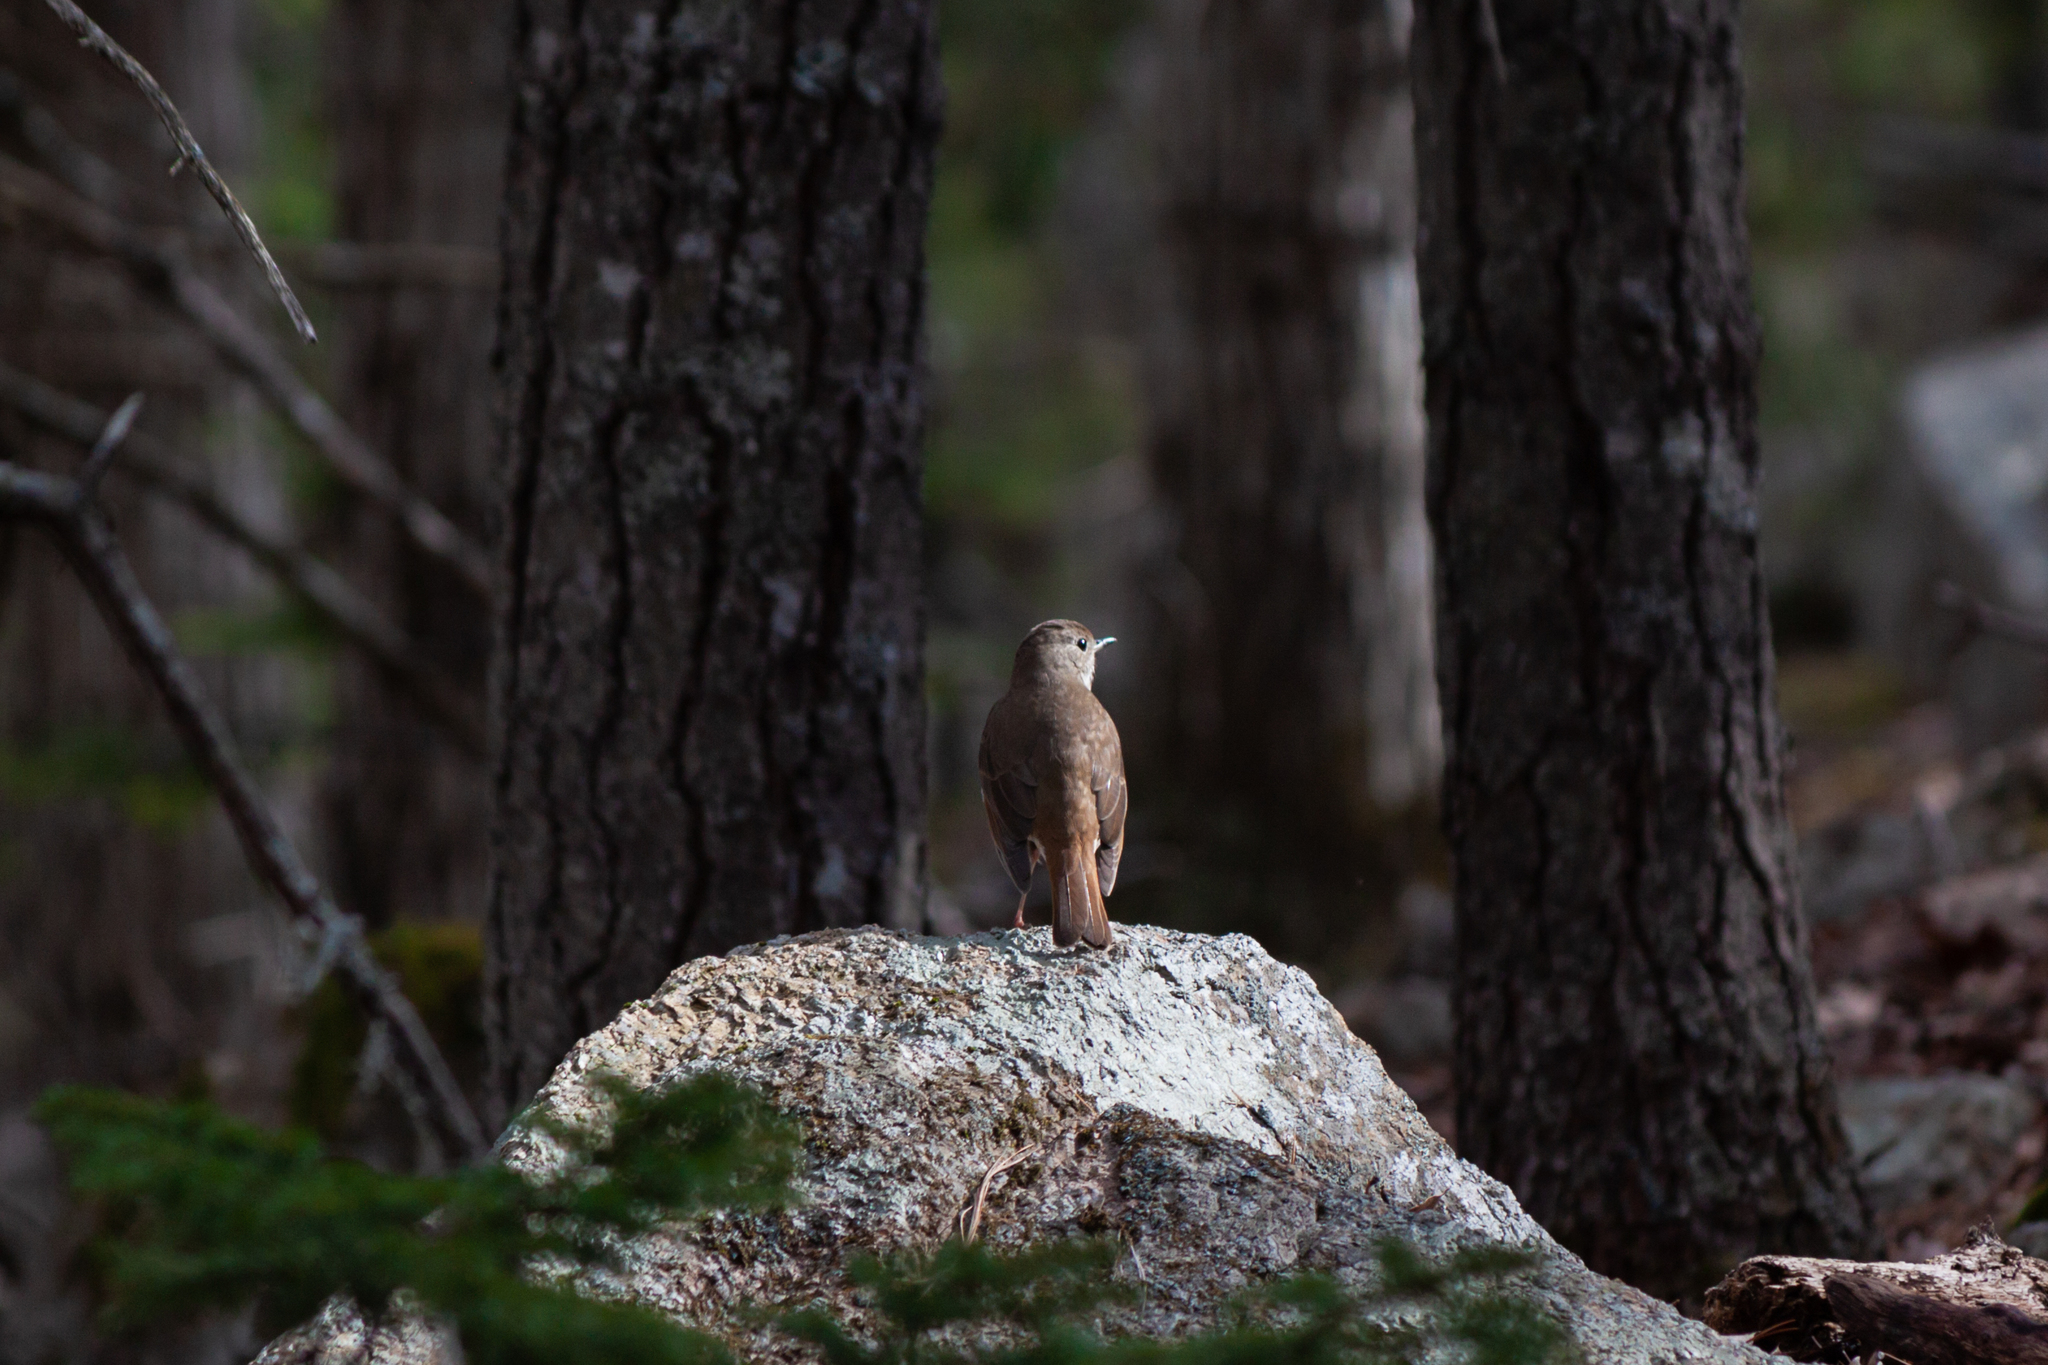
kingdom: Animalia
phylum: Chordata
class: Aves
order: Passeriformes
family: Turdidae
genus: Catharus
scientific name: Catharus guttatus
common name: Hermit thrush
